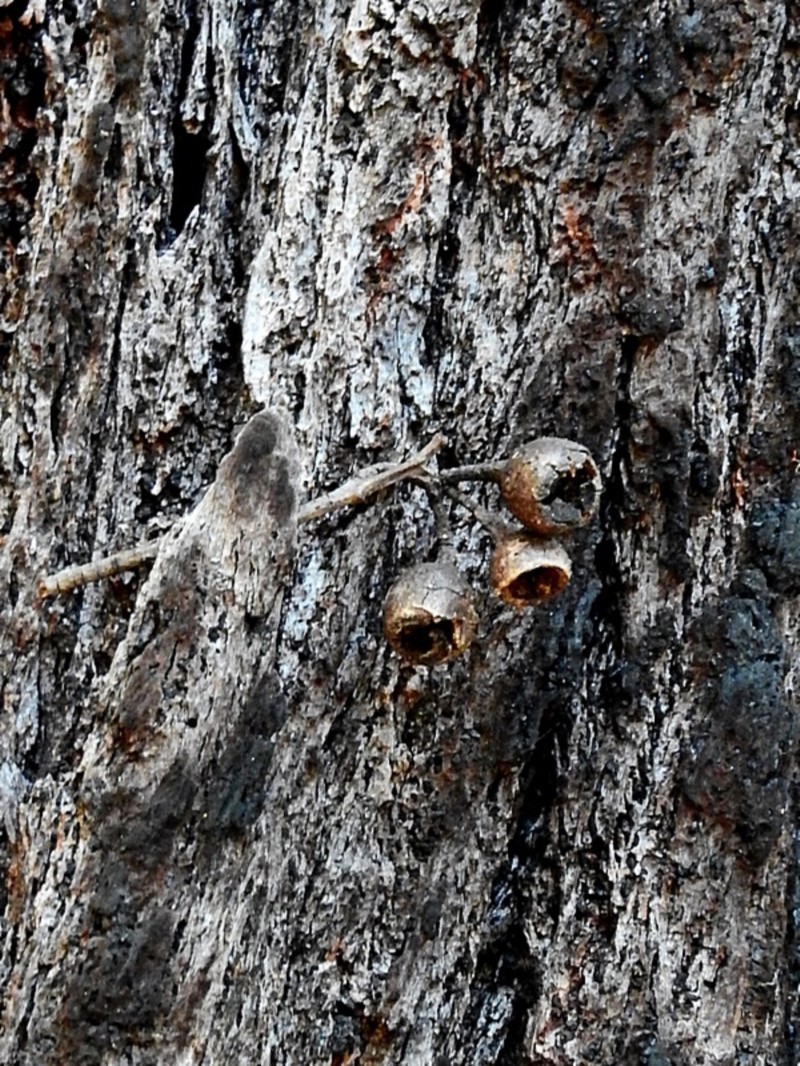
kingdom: Plantae
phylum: Tracheophyta
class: Magnoliopsida
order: Myrtales
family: Myrtaceae
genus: Eucalyptus
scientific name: Eucalyptus tricarpa
